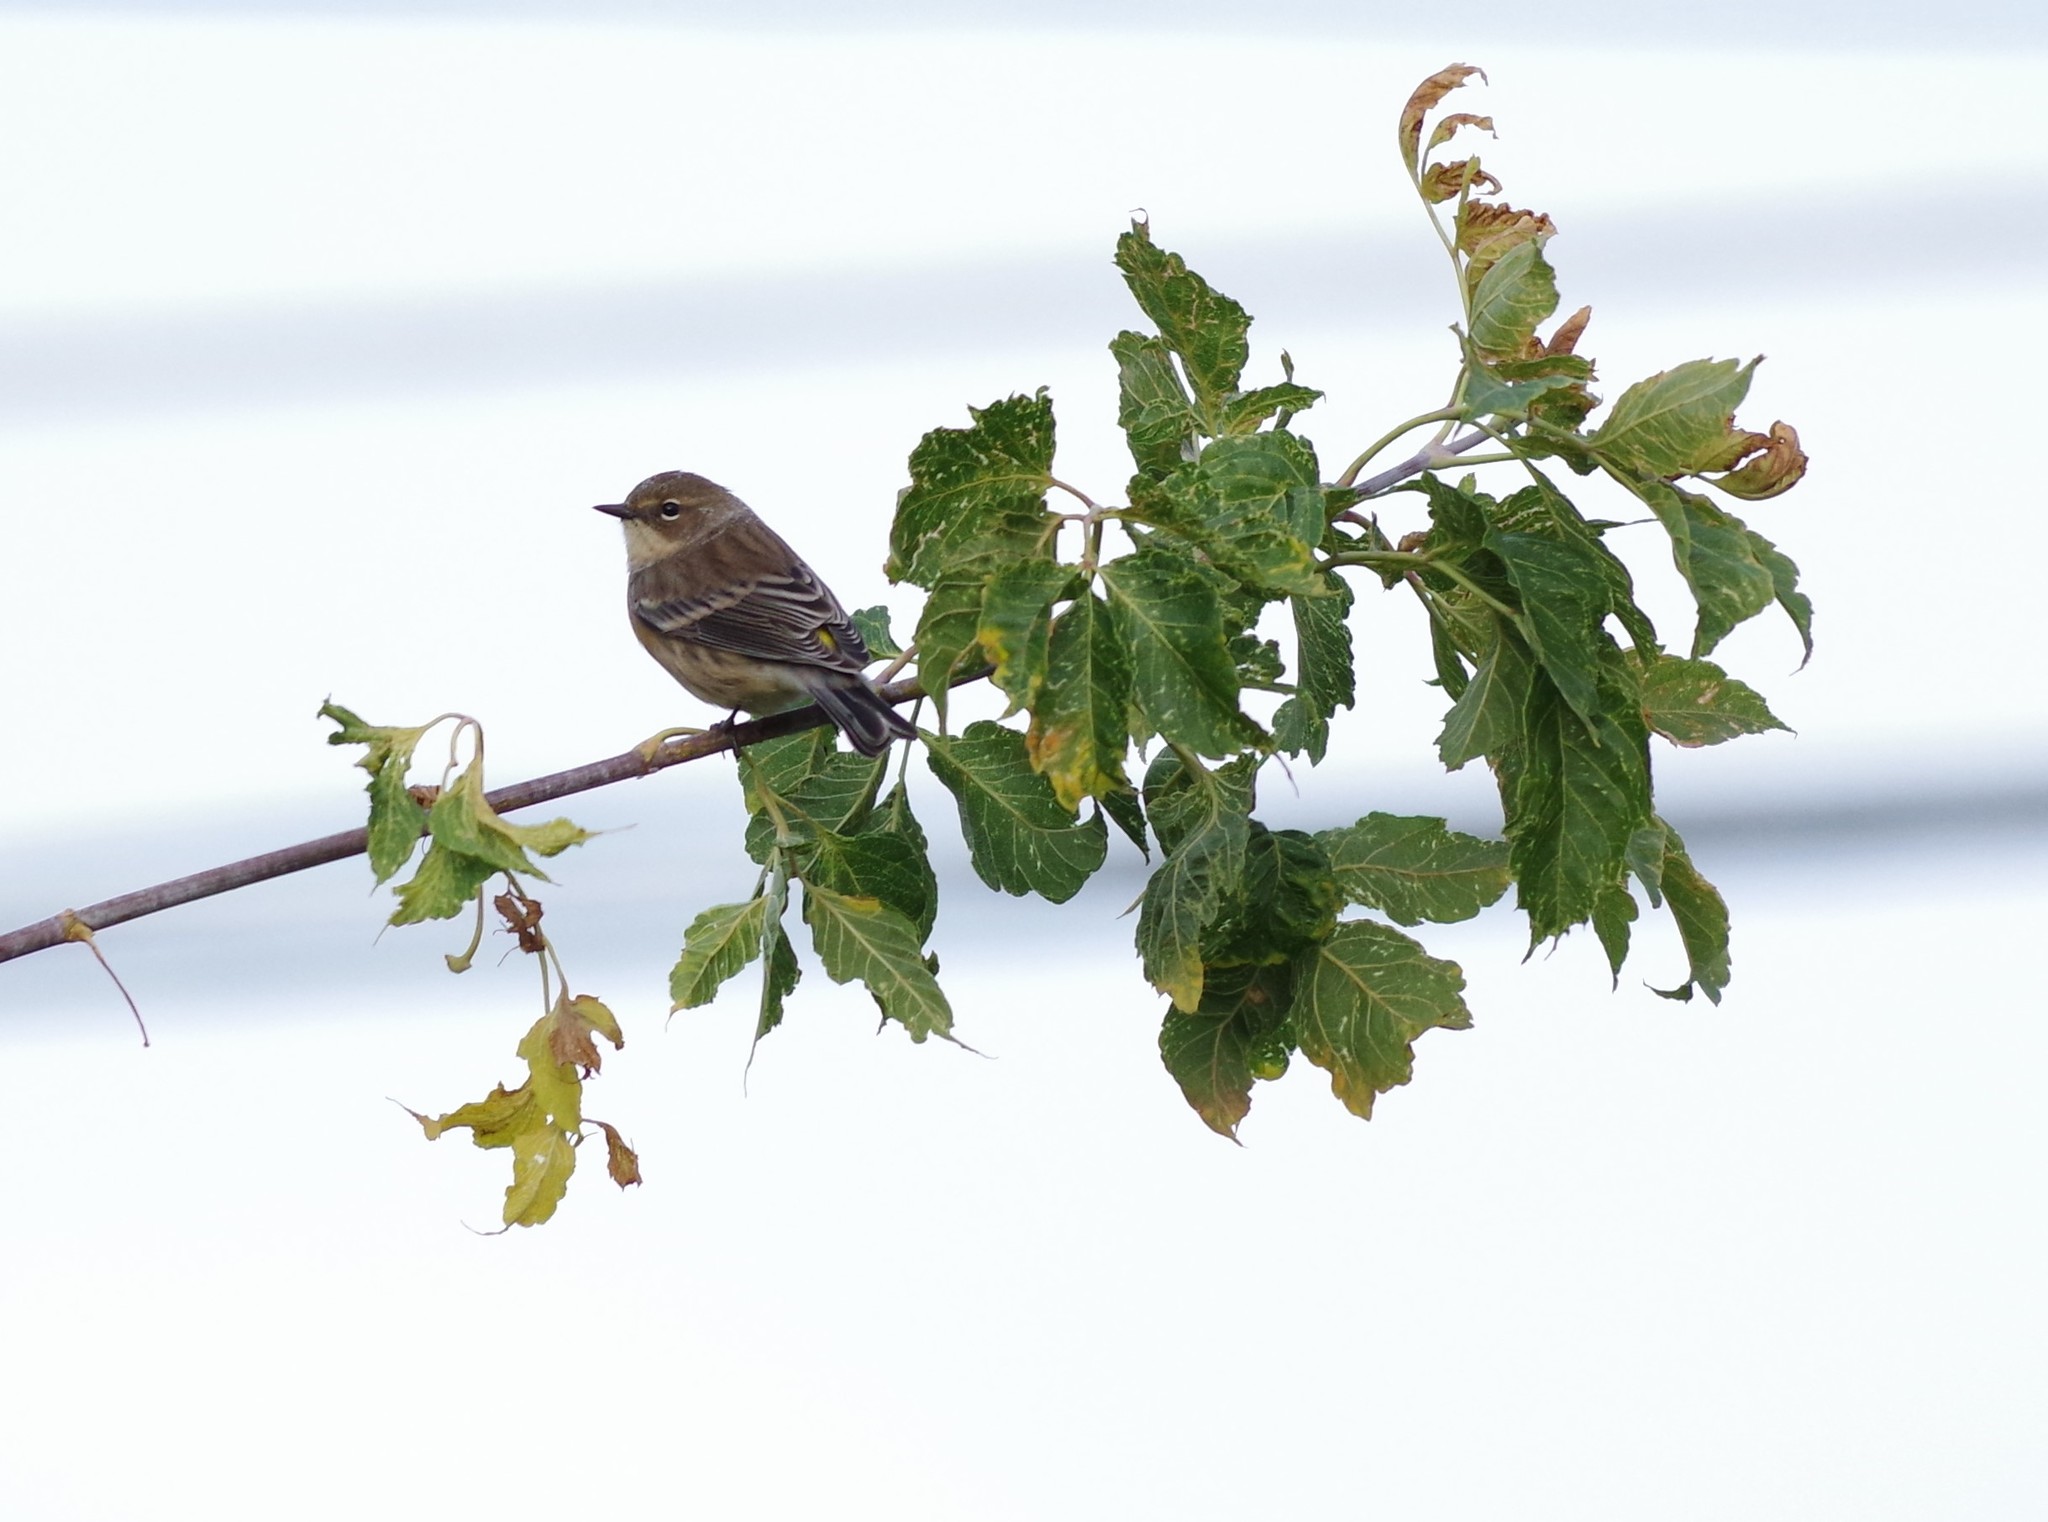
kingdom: Animalia
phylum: Chordata
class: Aves
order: Passeriformes
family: Parulidae
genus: Setophaga
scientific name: Setophaga coronata
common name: Myrtle warbler
